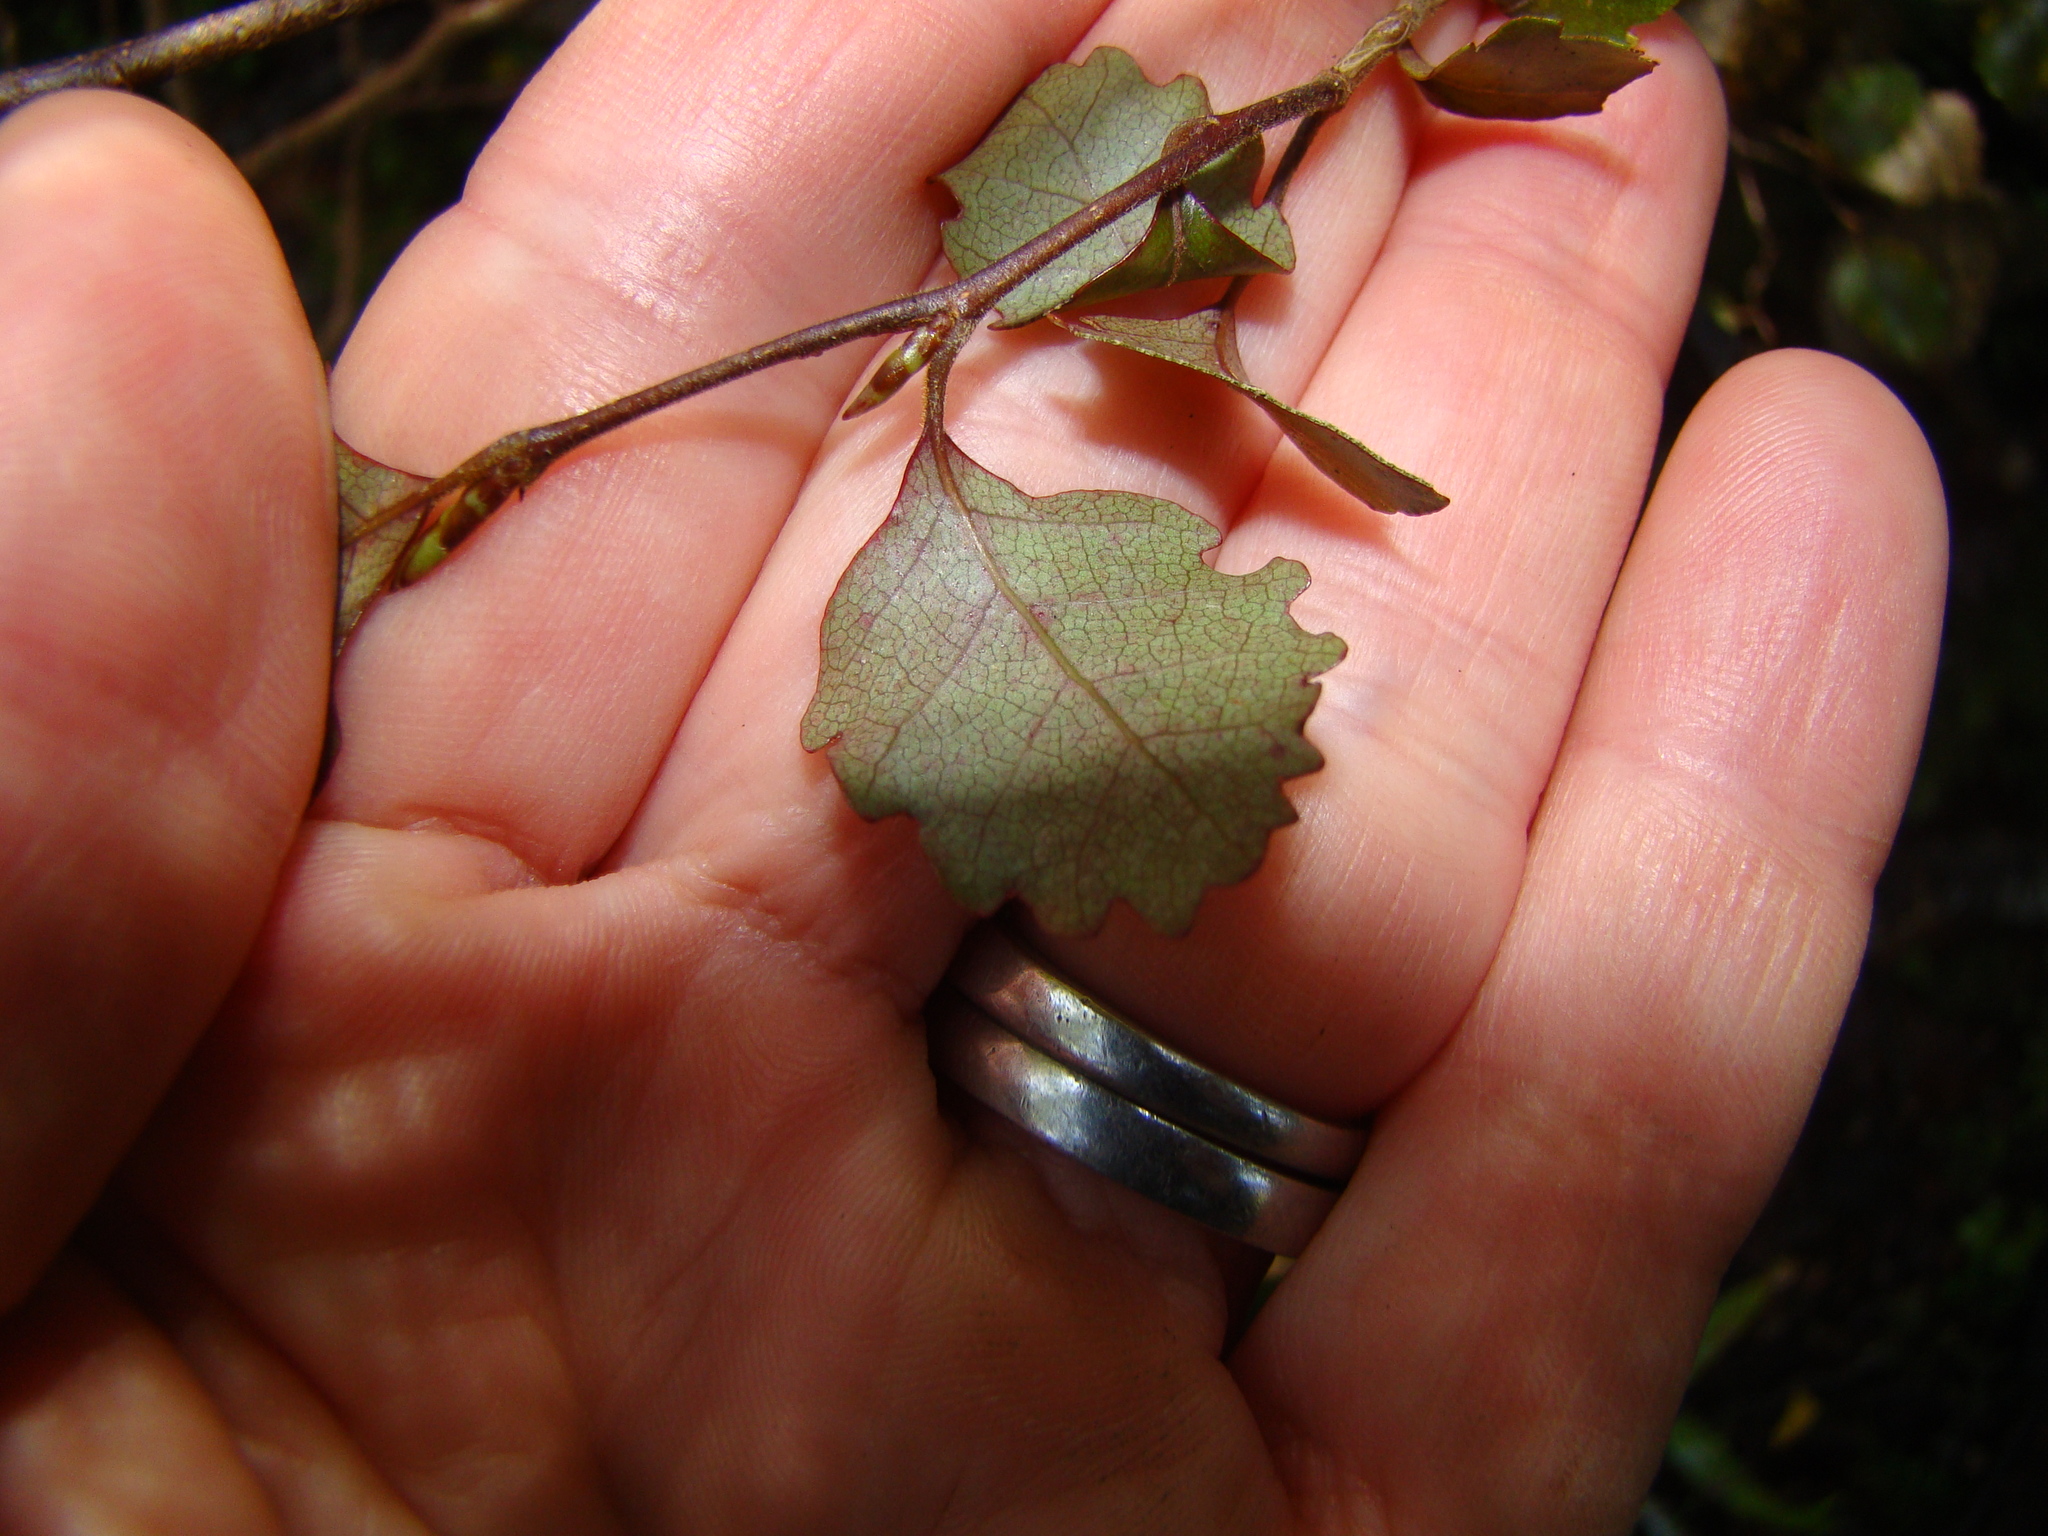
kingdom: Plantae
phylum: Tracheophyta
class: Magnoliopsida
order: Fagales
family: Nothofagaceae
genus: Nothofagus
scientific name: Nothofagus truncata
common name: Hard beech
